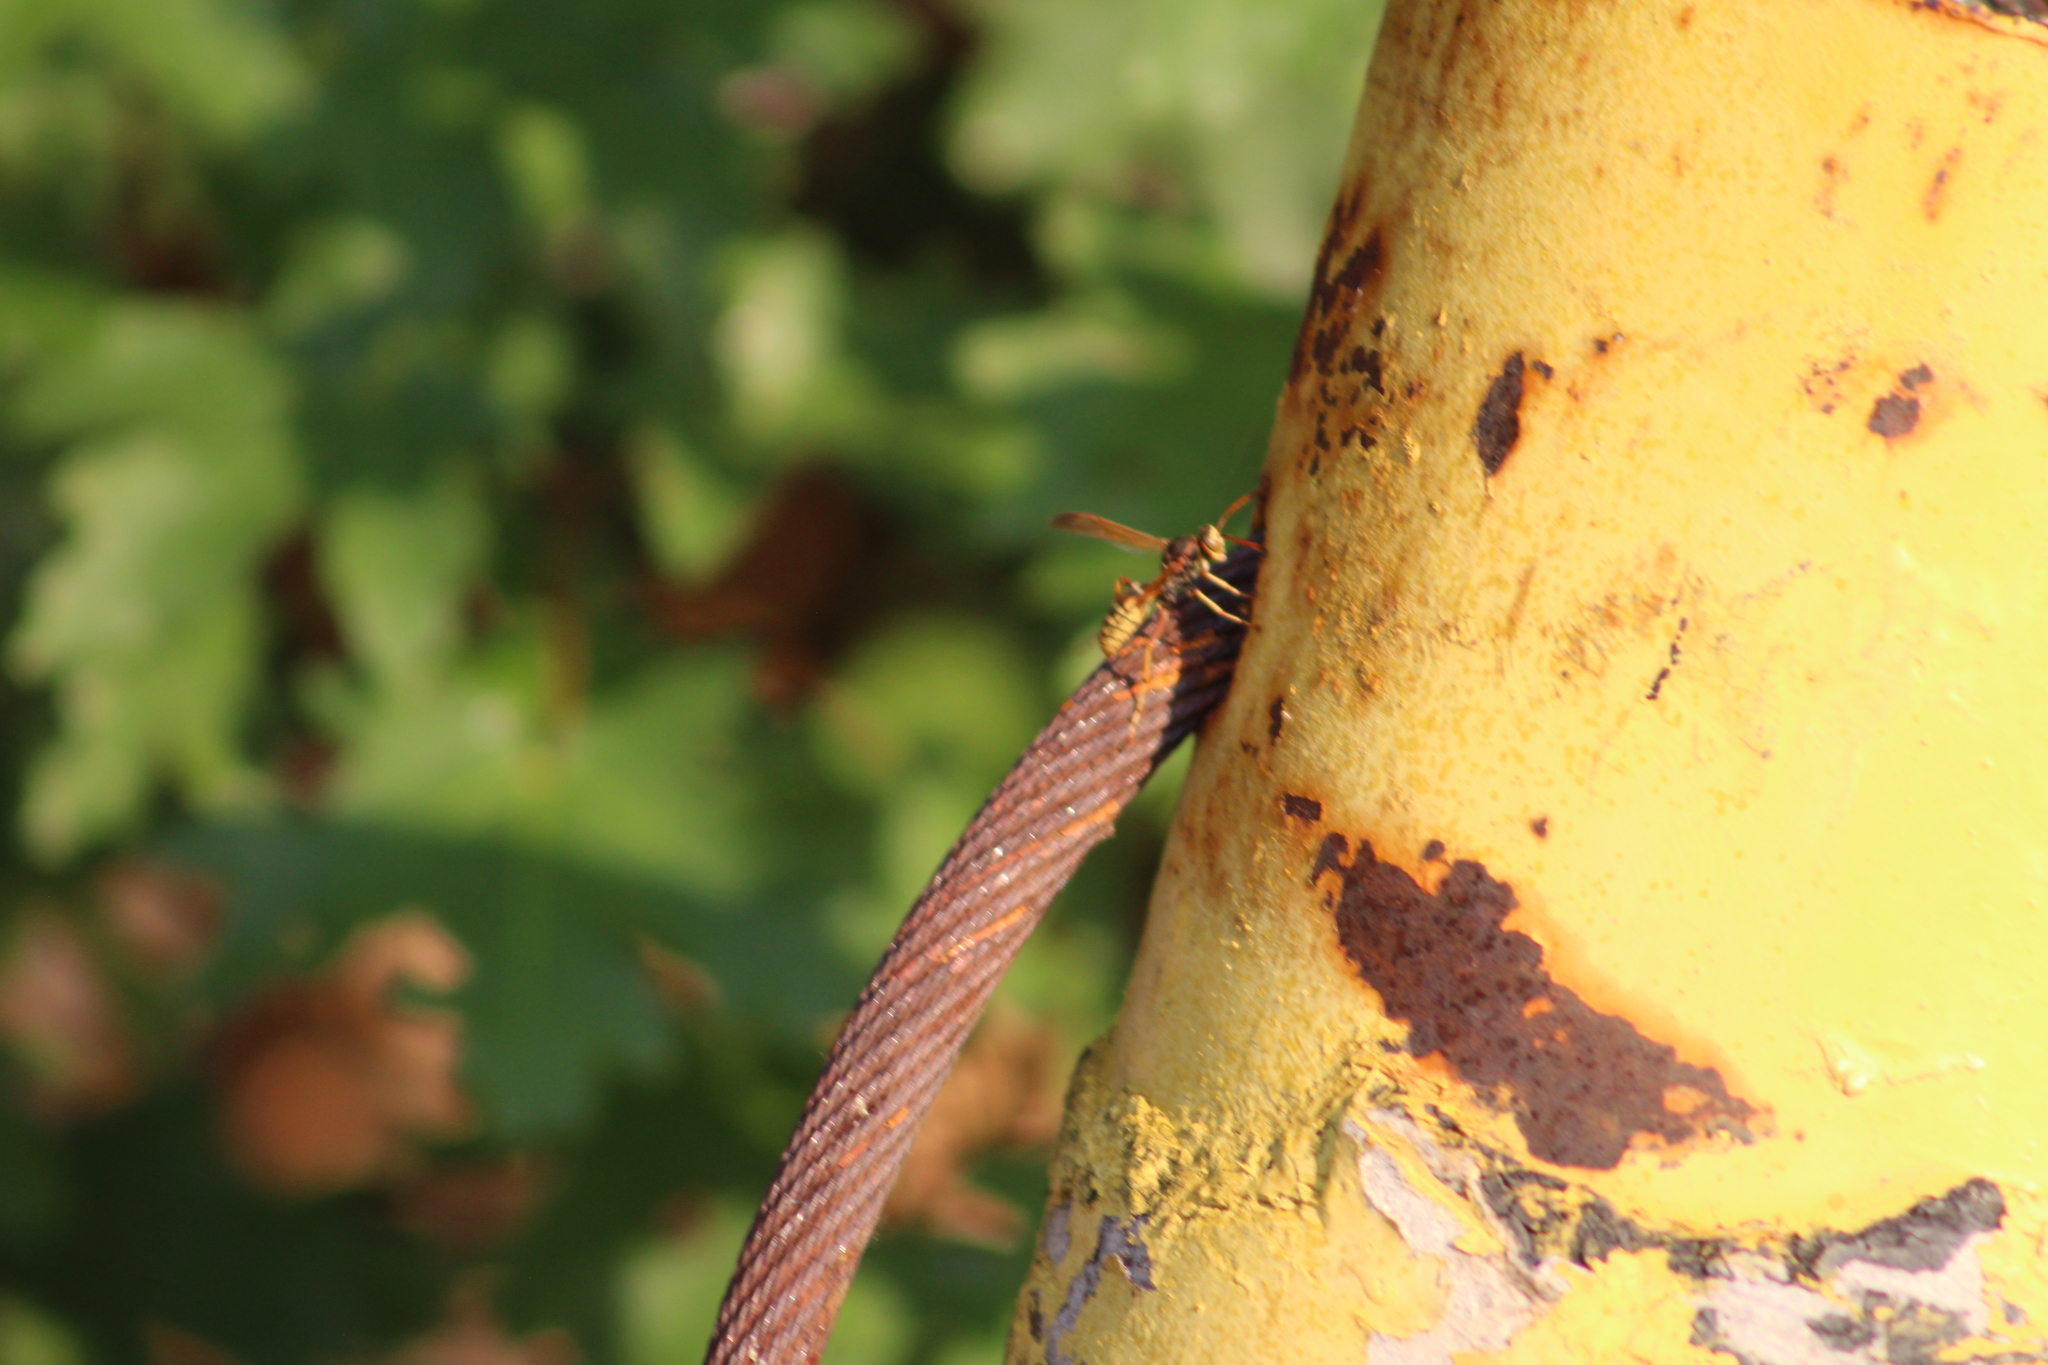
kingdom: Animalia
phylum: Arthropoda
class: Insecta
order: Hymenoptera
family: Vespidae
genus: Mischocyttarus
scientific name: Mischocyttarus flavitarsis
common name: Wasp
